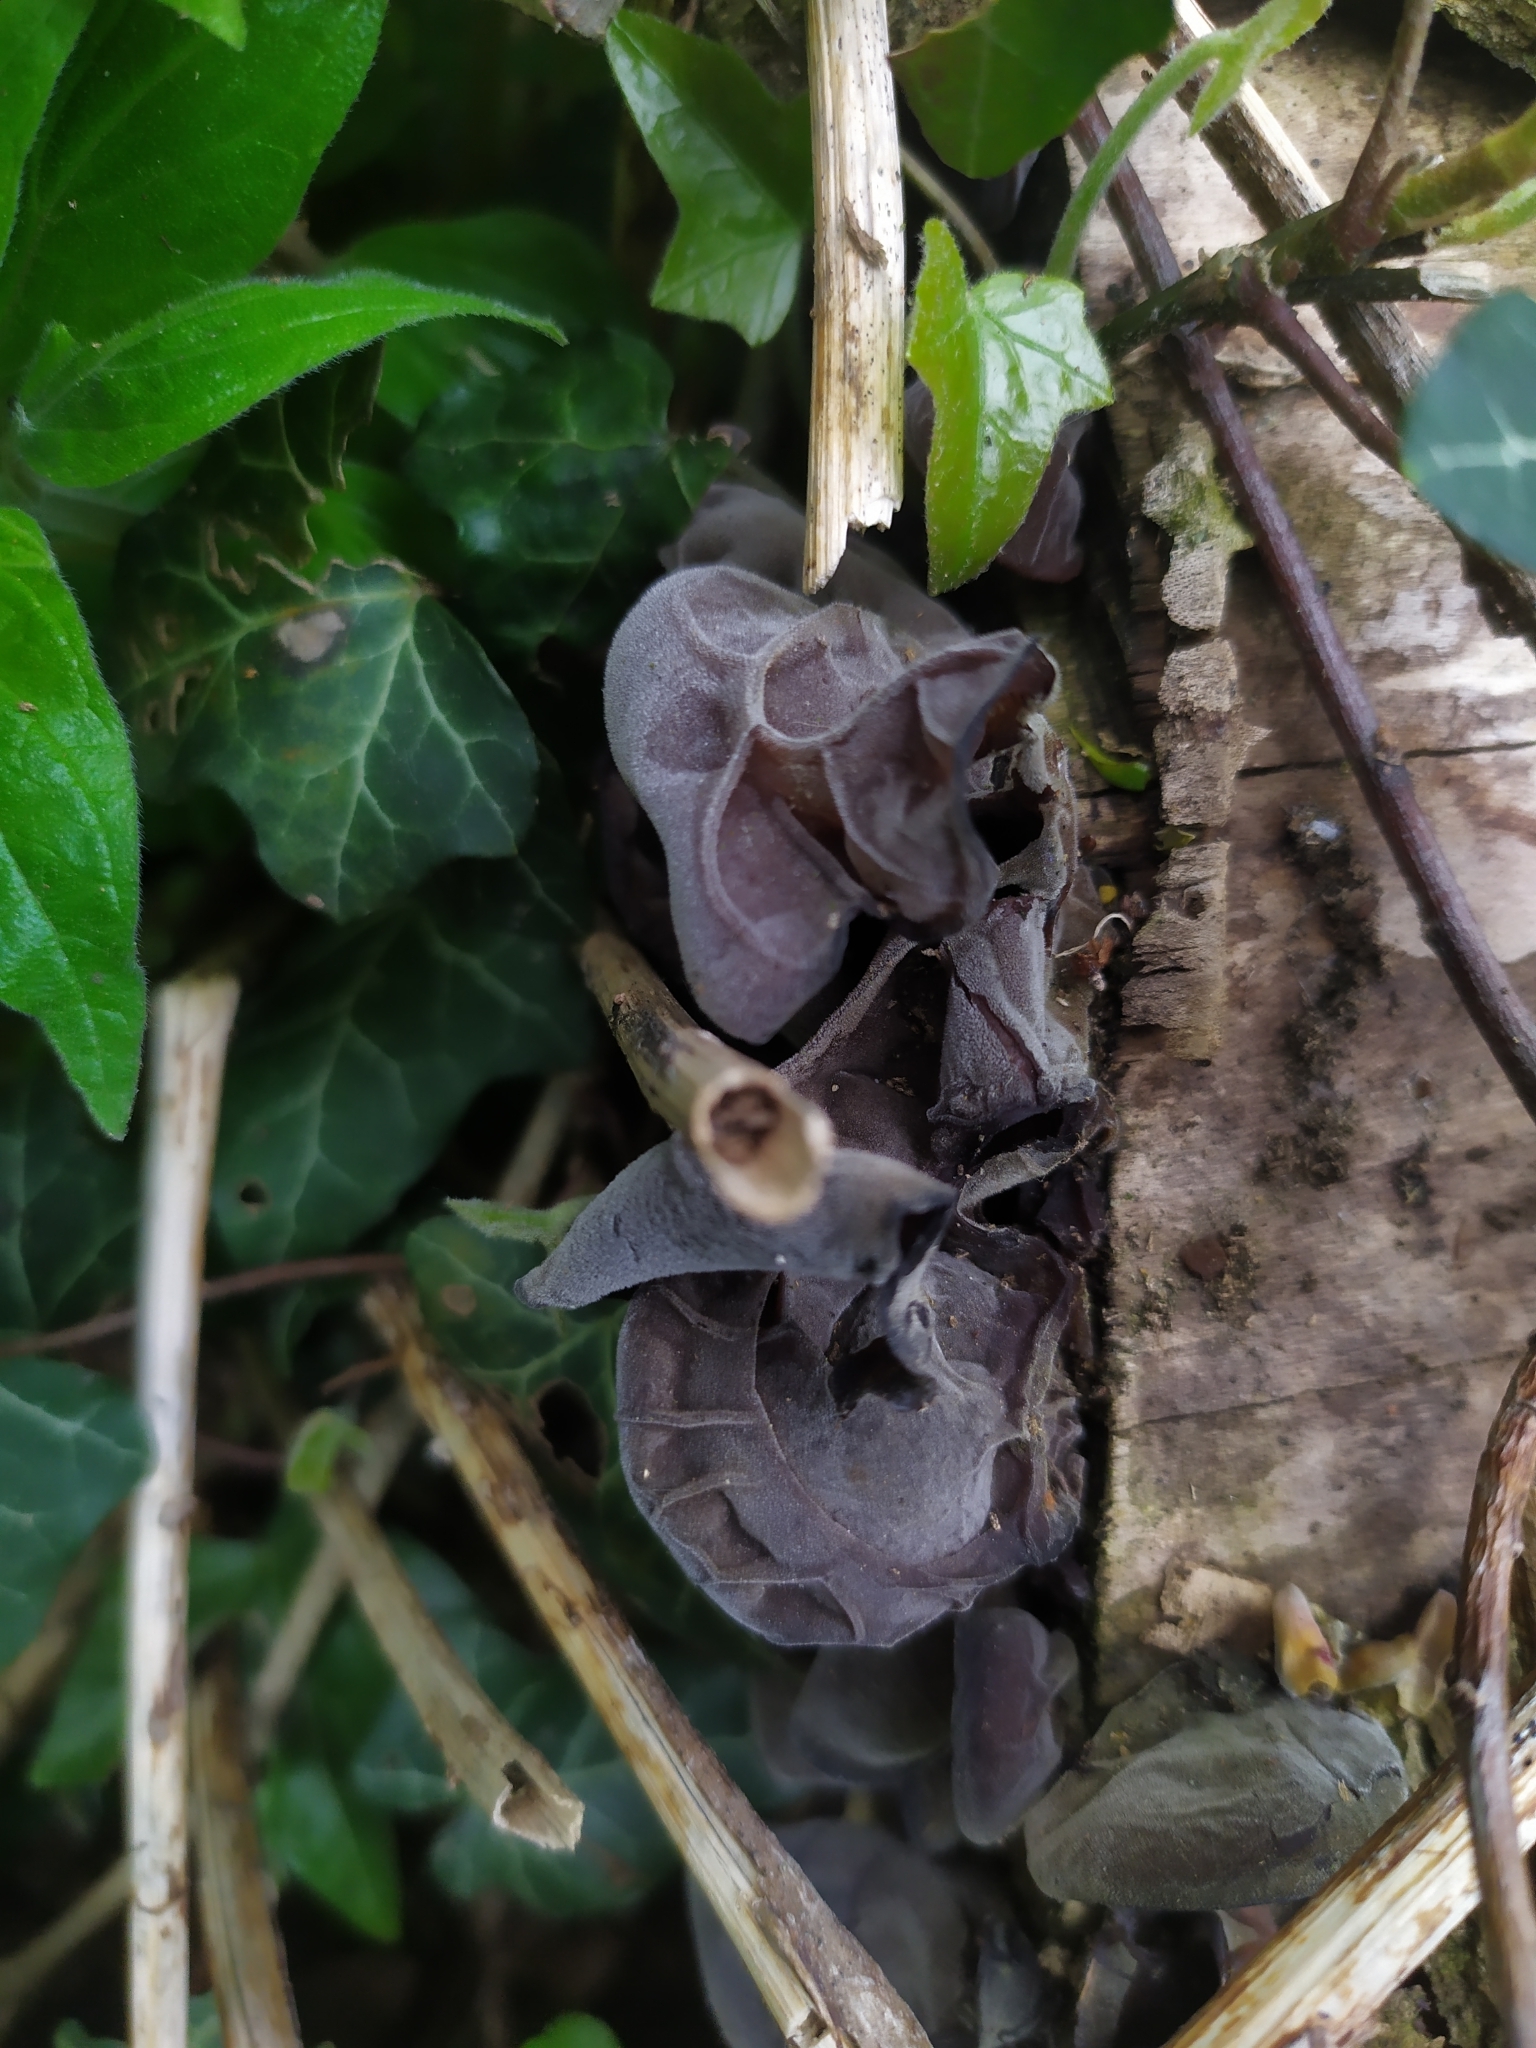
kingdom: Fungi
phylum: Basidiomycota
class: Agaricomycetes
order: Auriculariales
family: Auriculariaceae
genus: Auricularia
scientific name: Auricularia auricula-judae
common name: Jelly ear
